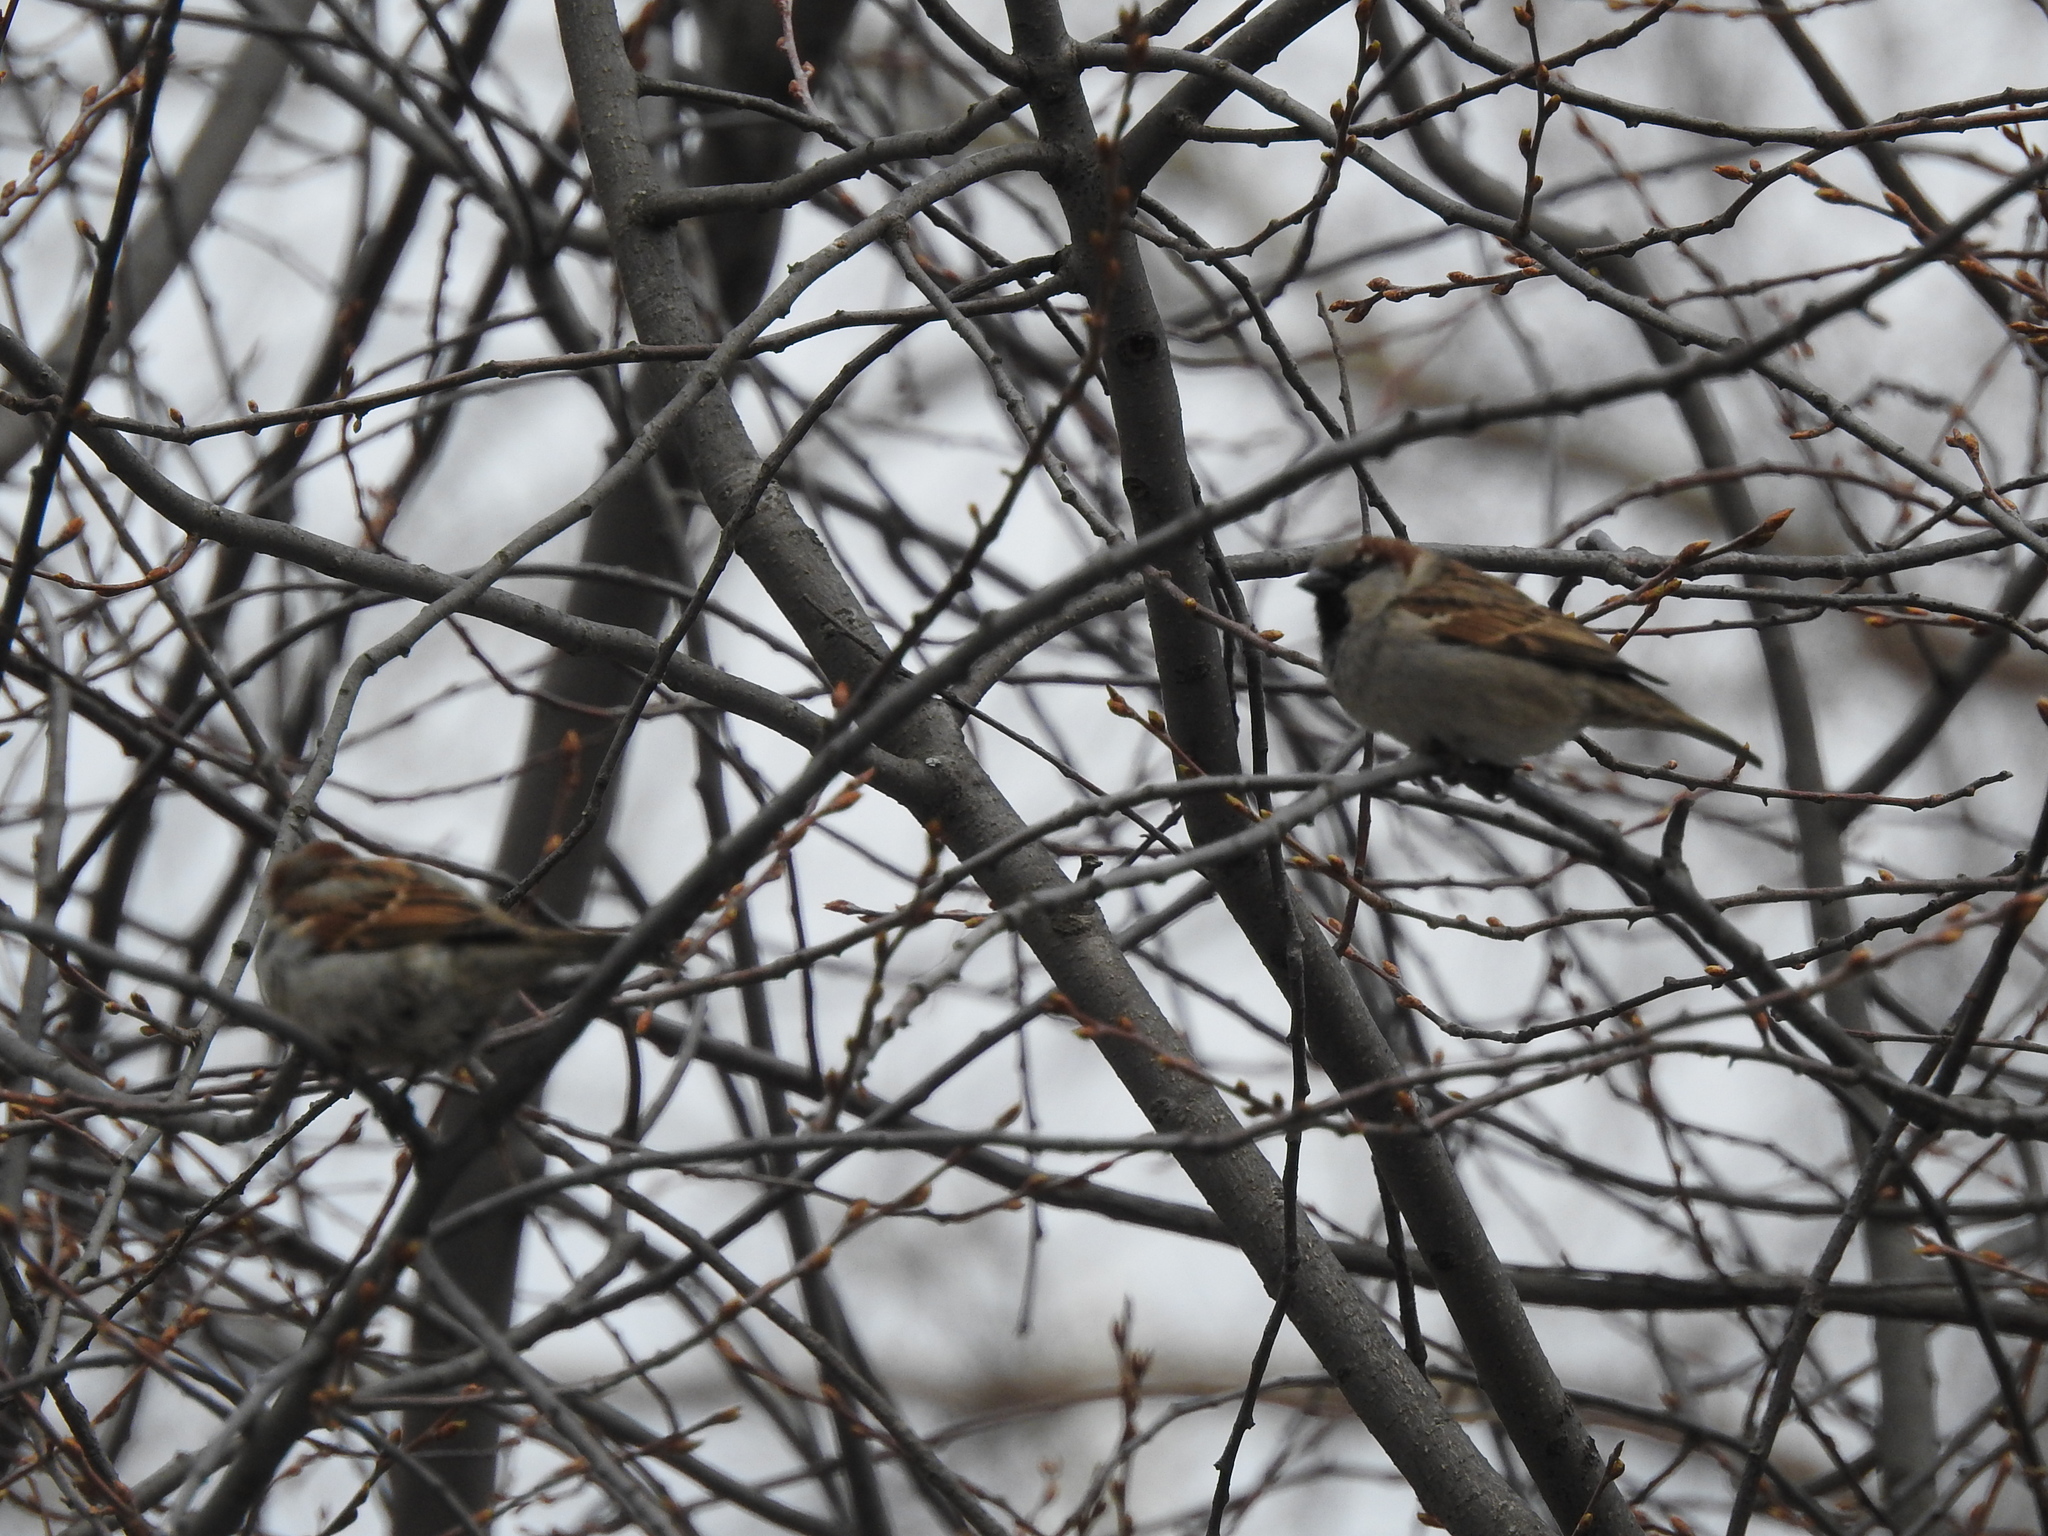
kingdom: Animalia
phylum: Chordata
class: Aves
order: Passeriformes
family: Passeridae
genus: Passer
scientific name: Passer domesticus
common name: House sparrow
